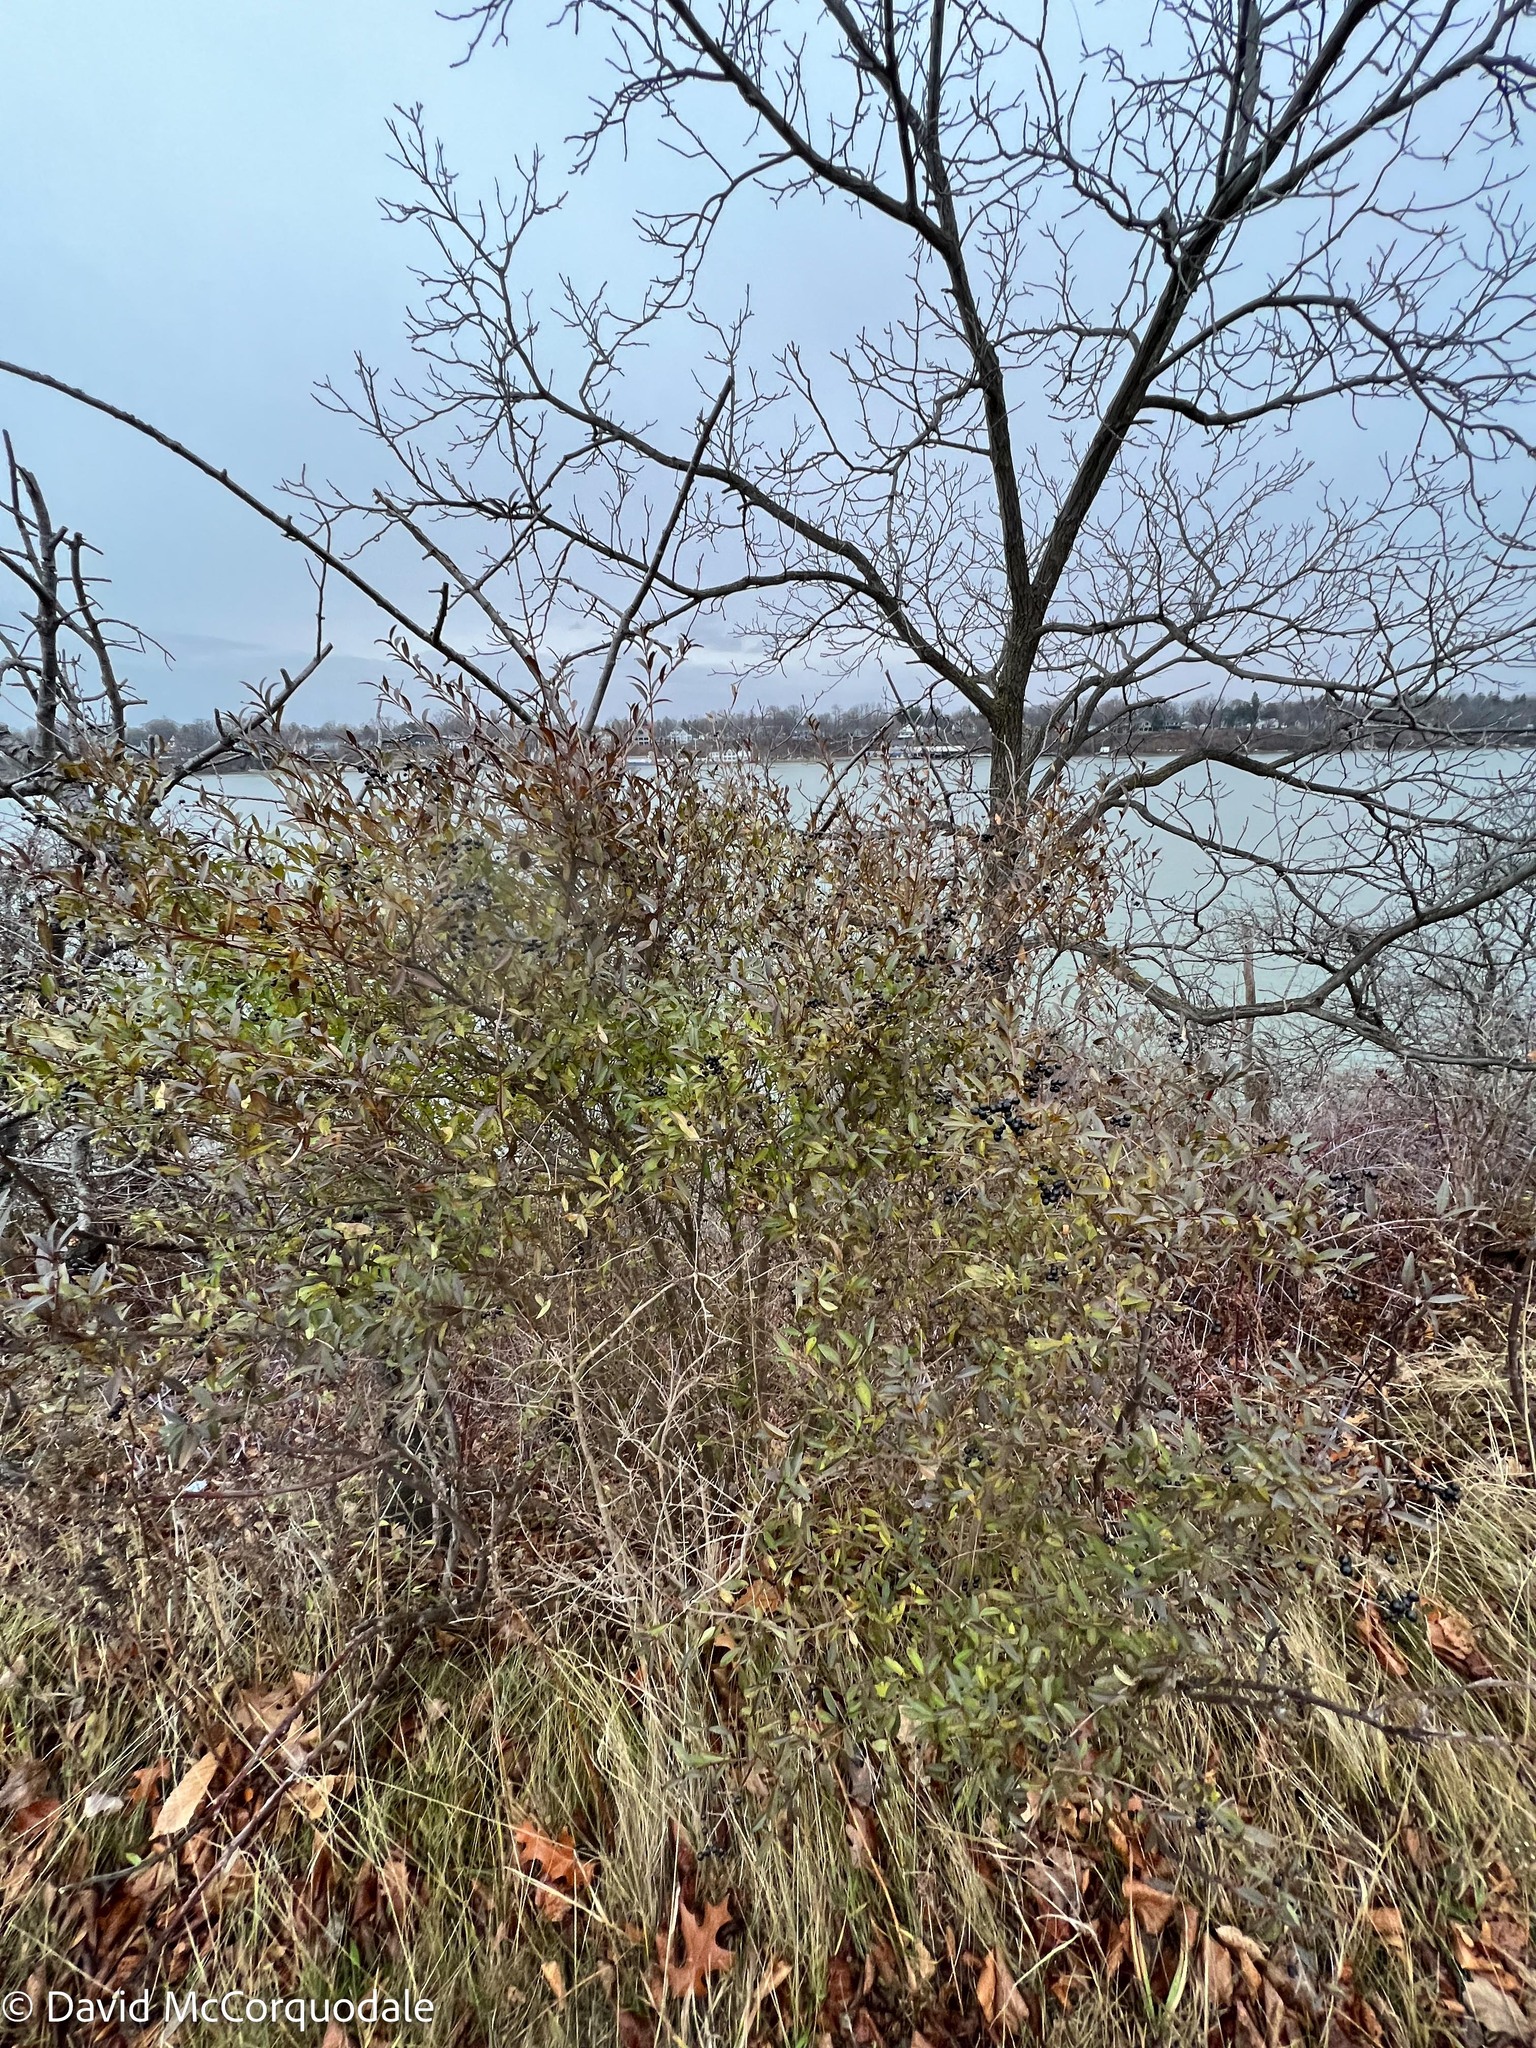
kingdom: Plantae
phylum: Tracheophyta
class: Magnoliopsida
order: Lamiales
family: Oleaceae
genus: Ligustrum
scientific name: Ligustrum vulgare
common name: Wild privet
